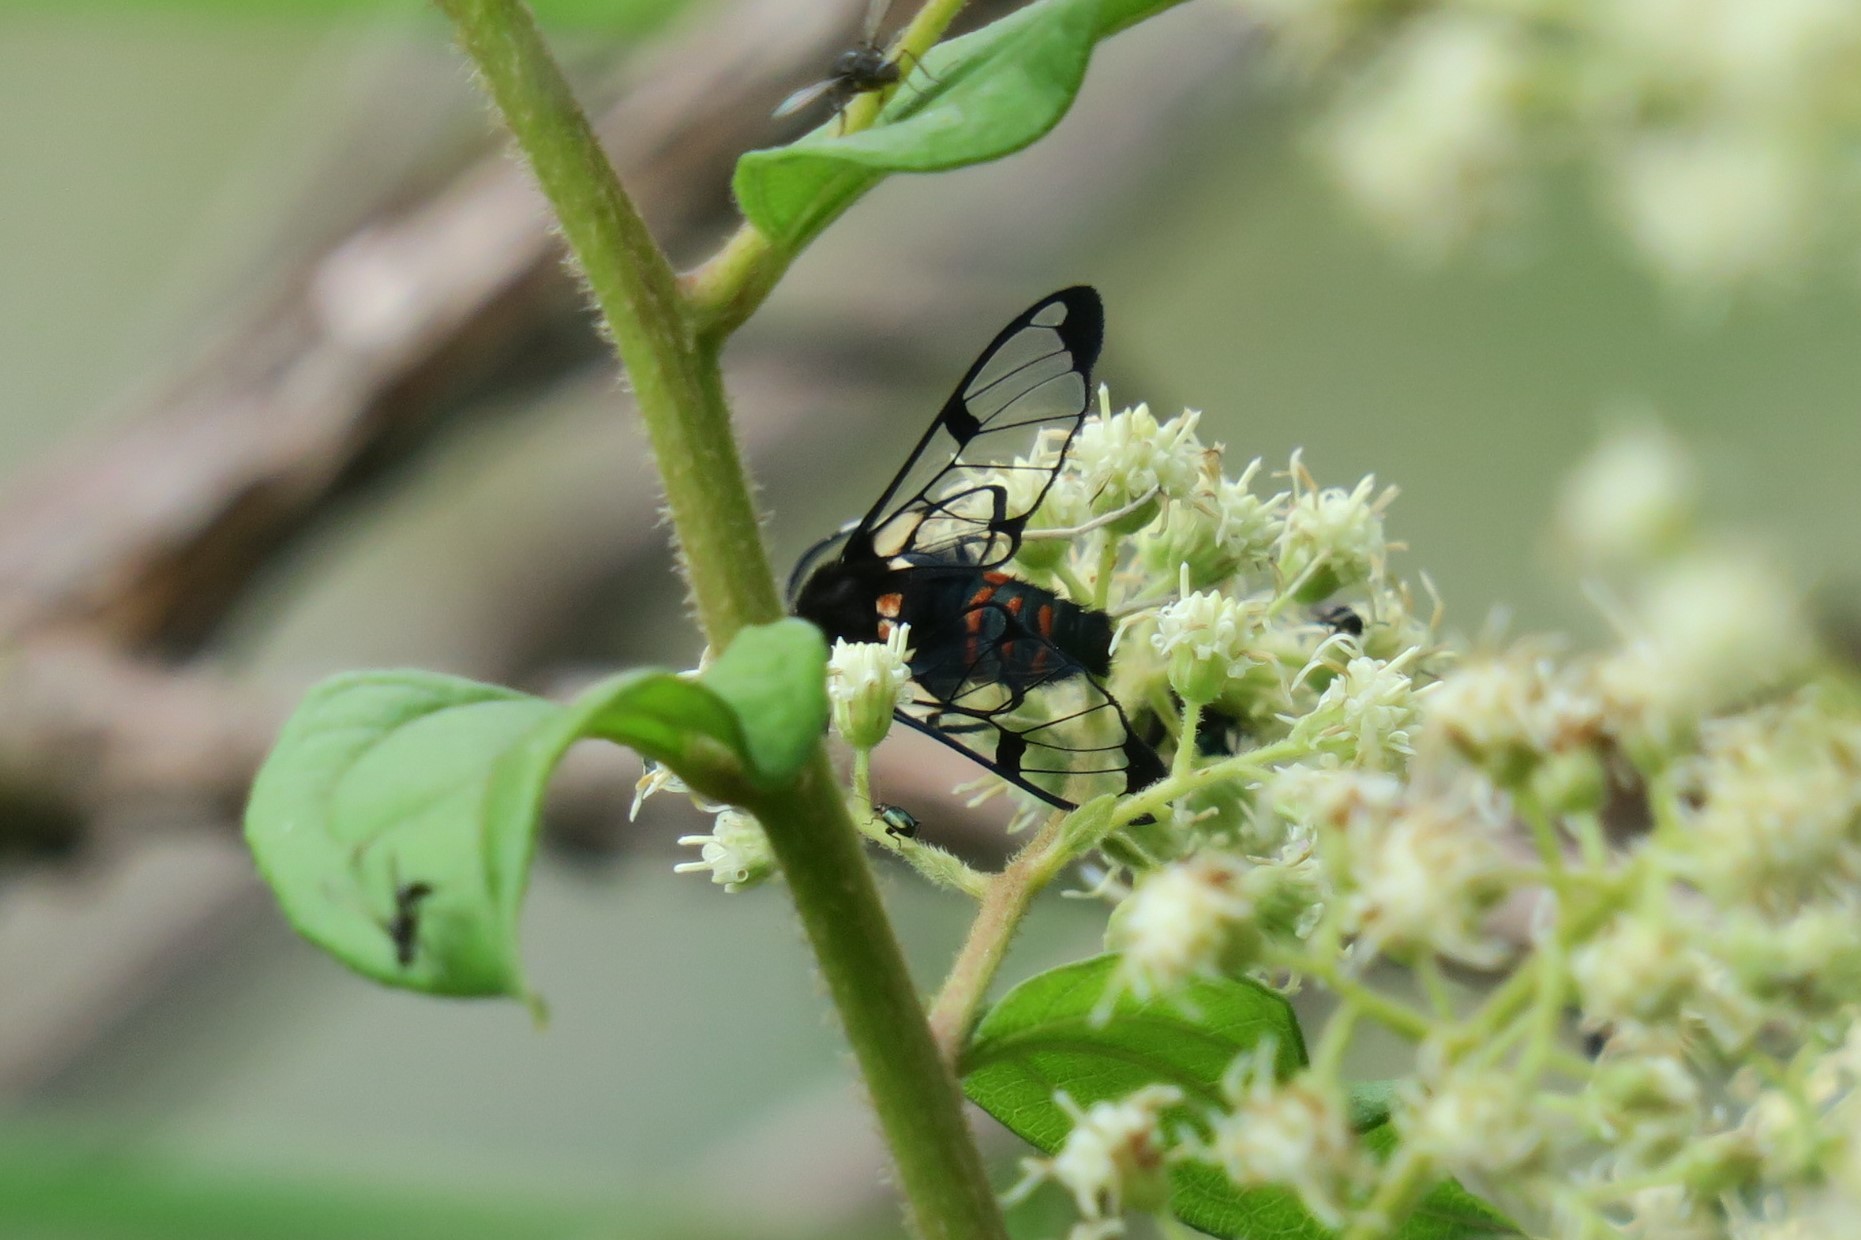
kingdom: Animalia
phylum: Arthropoda
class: Insecta
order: Lepidoptera
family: Erebidae
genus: Dasysphinx
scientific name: Dasysphinx baroni
